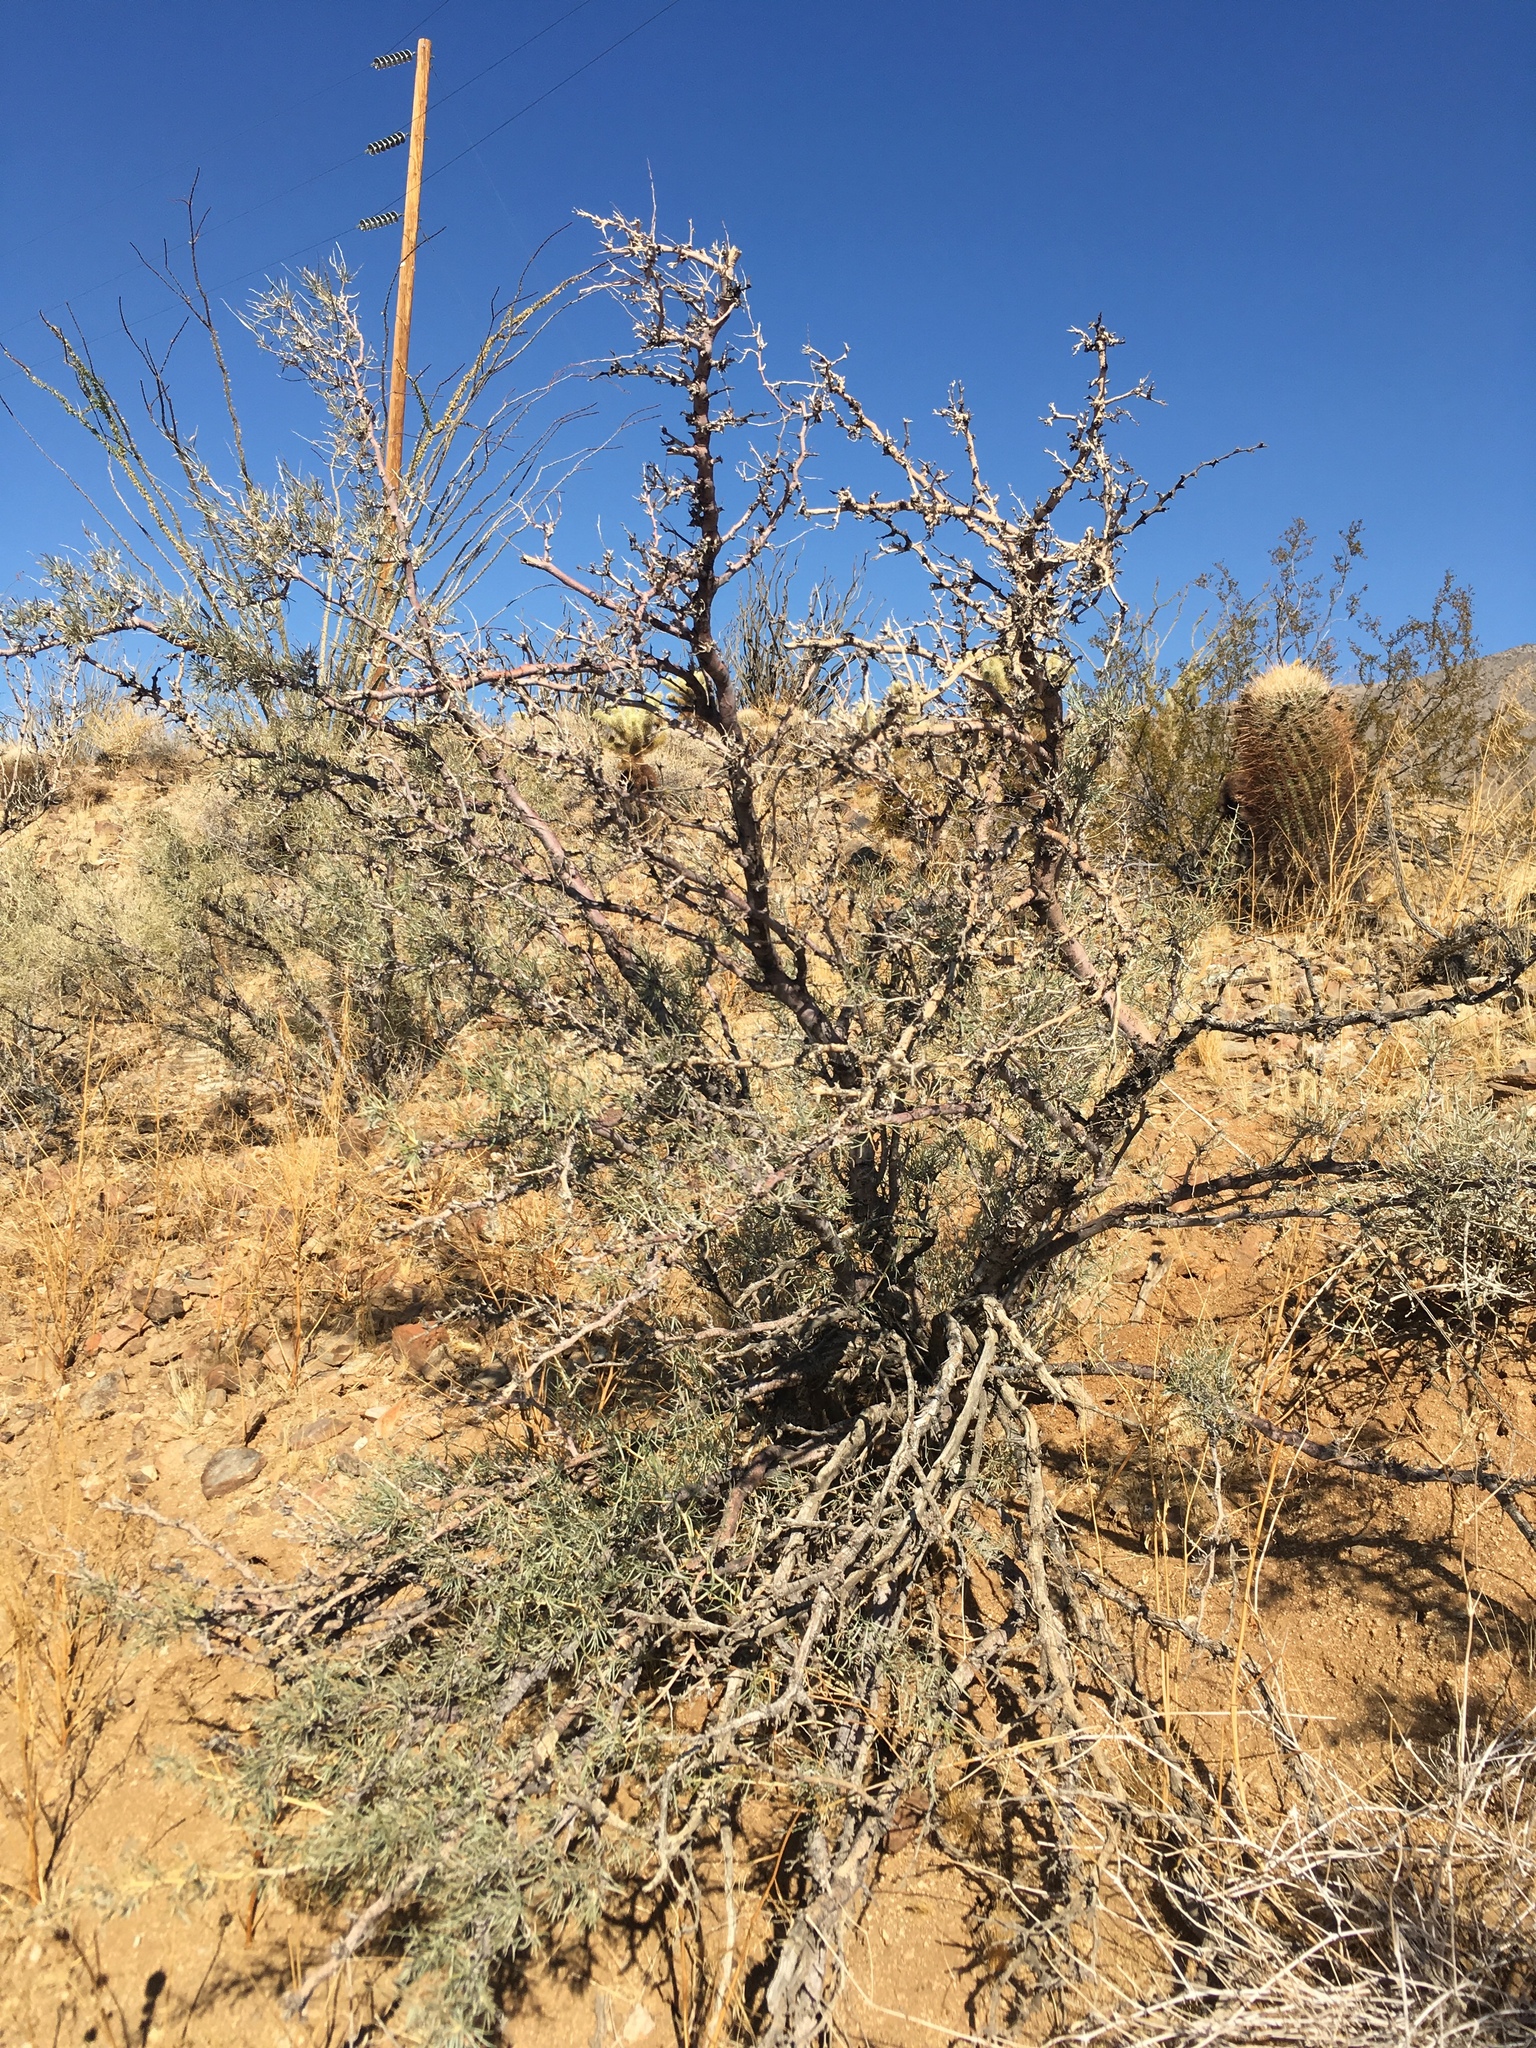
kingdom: Plantae
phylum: Tracheophyta
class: Magnoliopsida
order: Fabales
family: Fabaceae
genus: Psorothamnus
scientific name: Psorothamnus schottii
